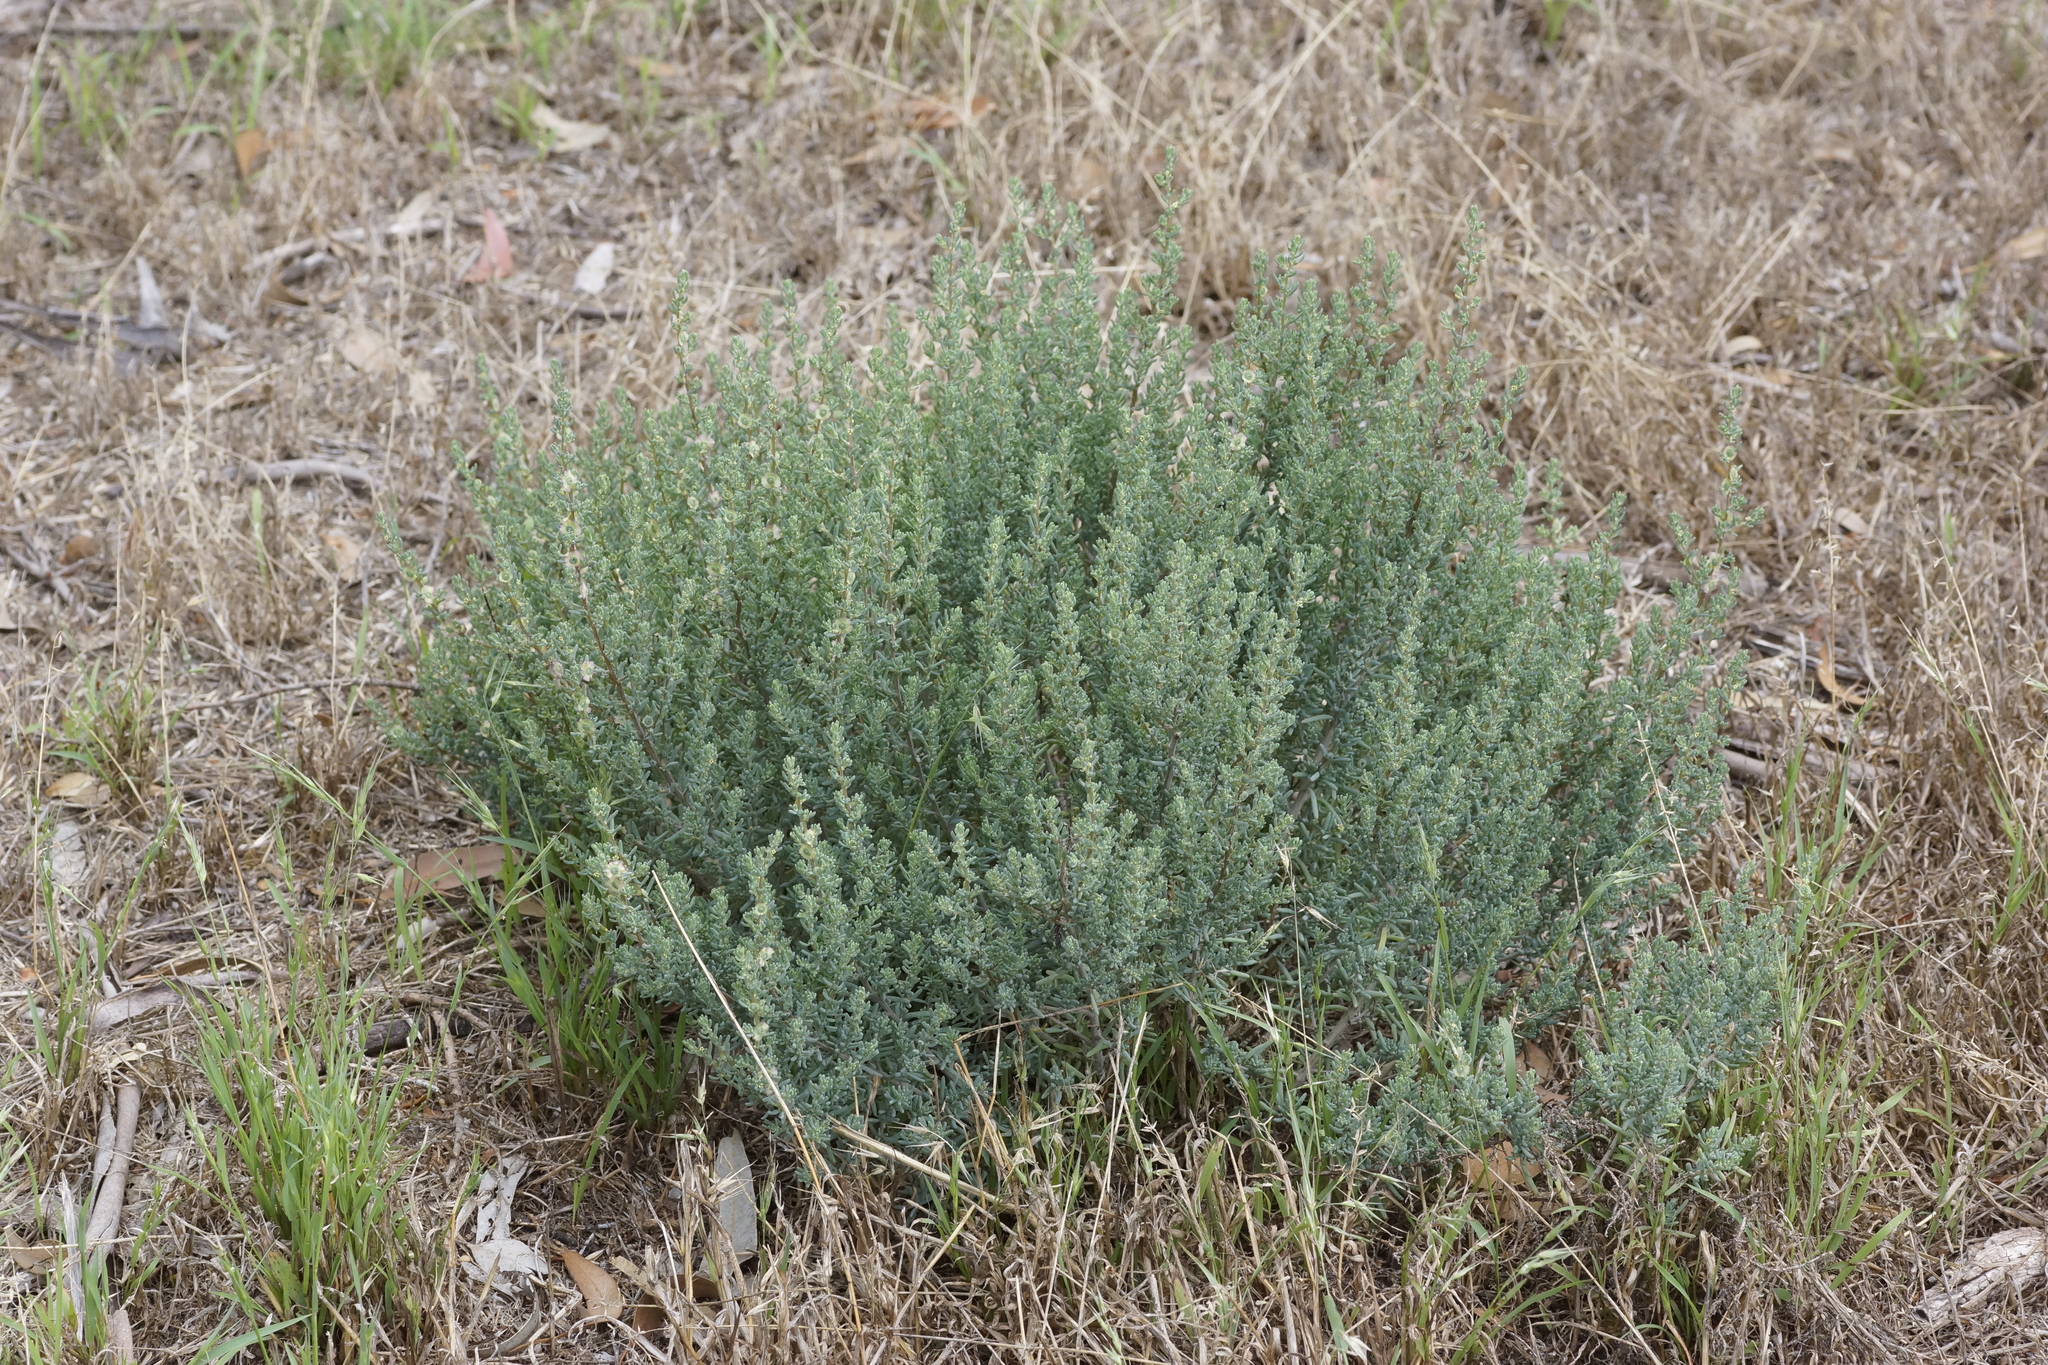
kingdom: Plantae
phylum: Tracheophyta
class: Magnoliopsida
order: Caryophyllales
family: Amaranthaceae
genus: Maireana
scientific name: Maireana decalvans
